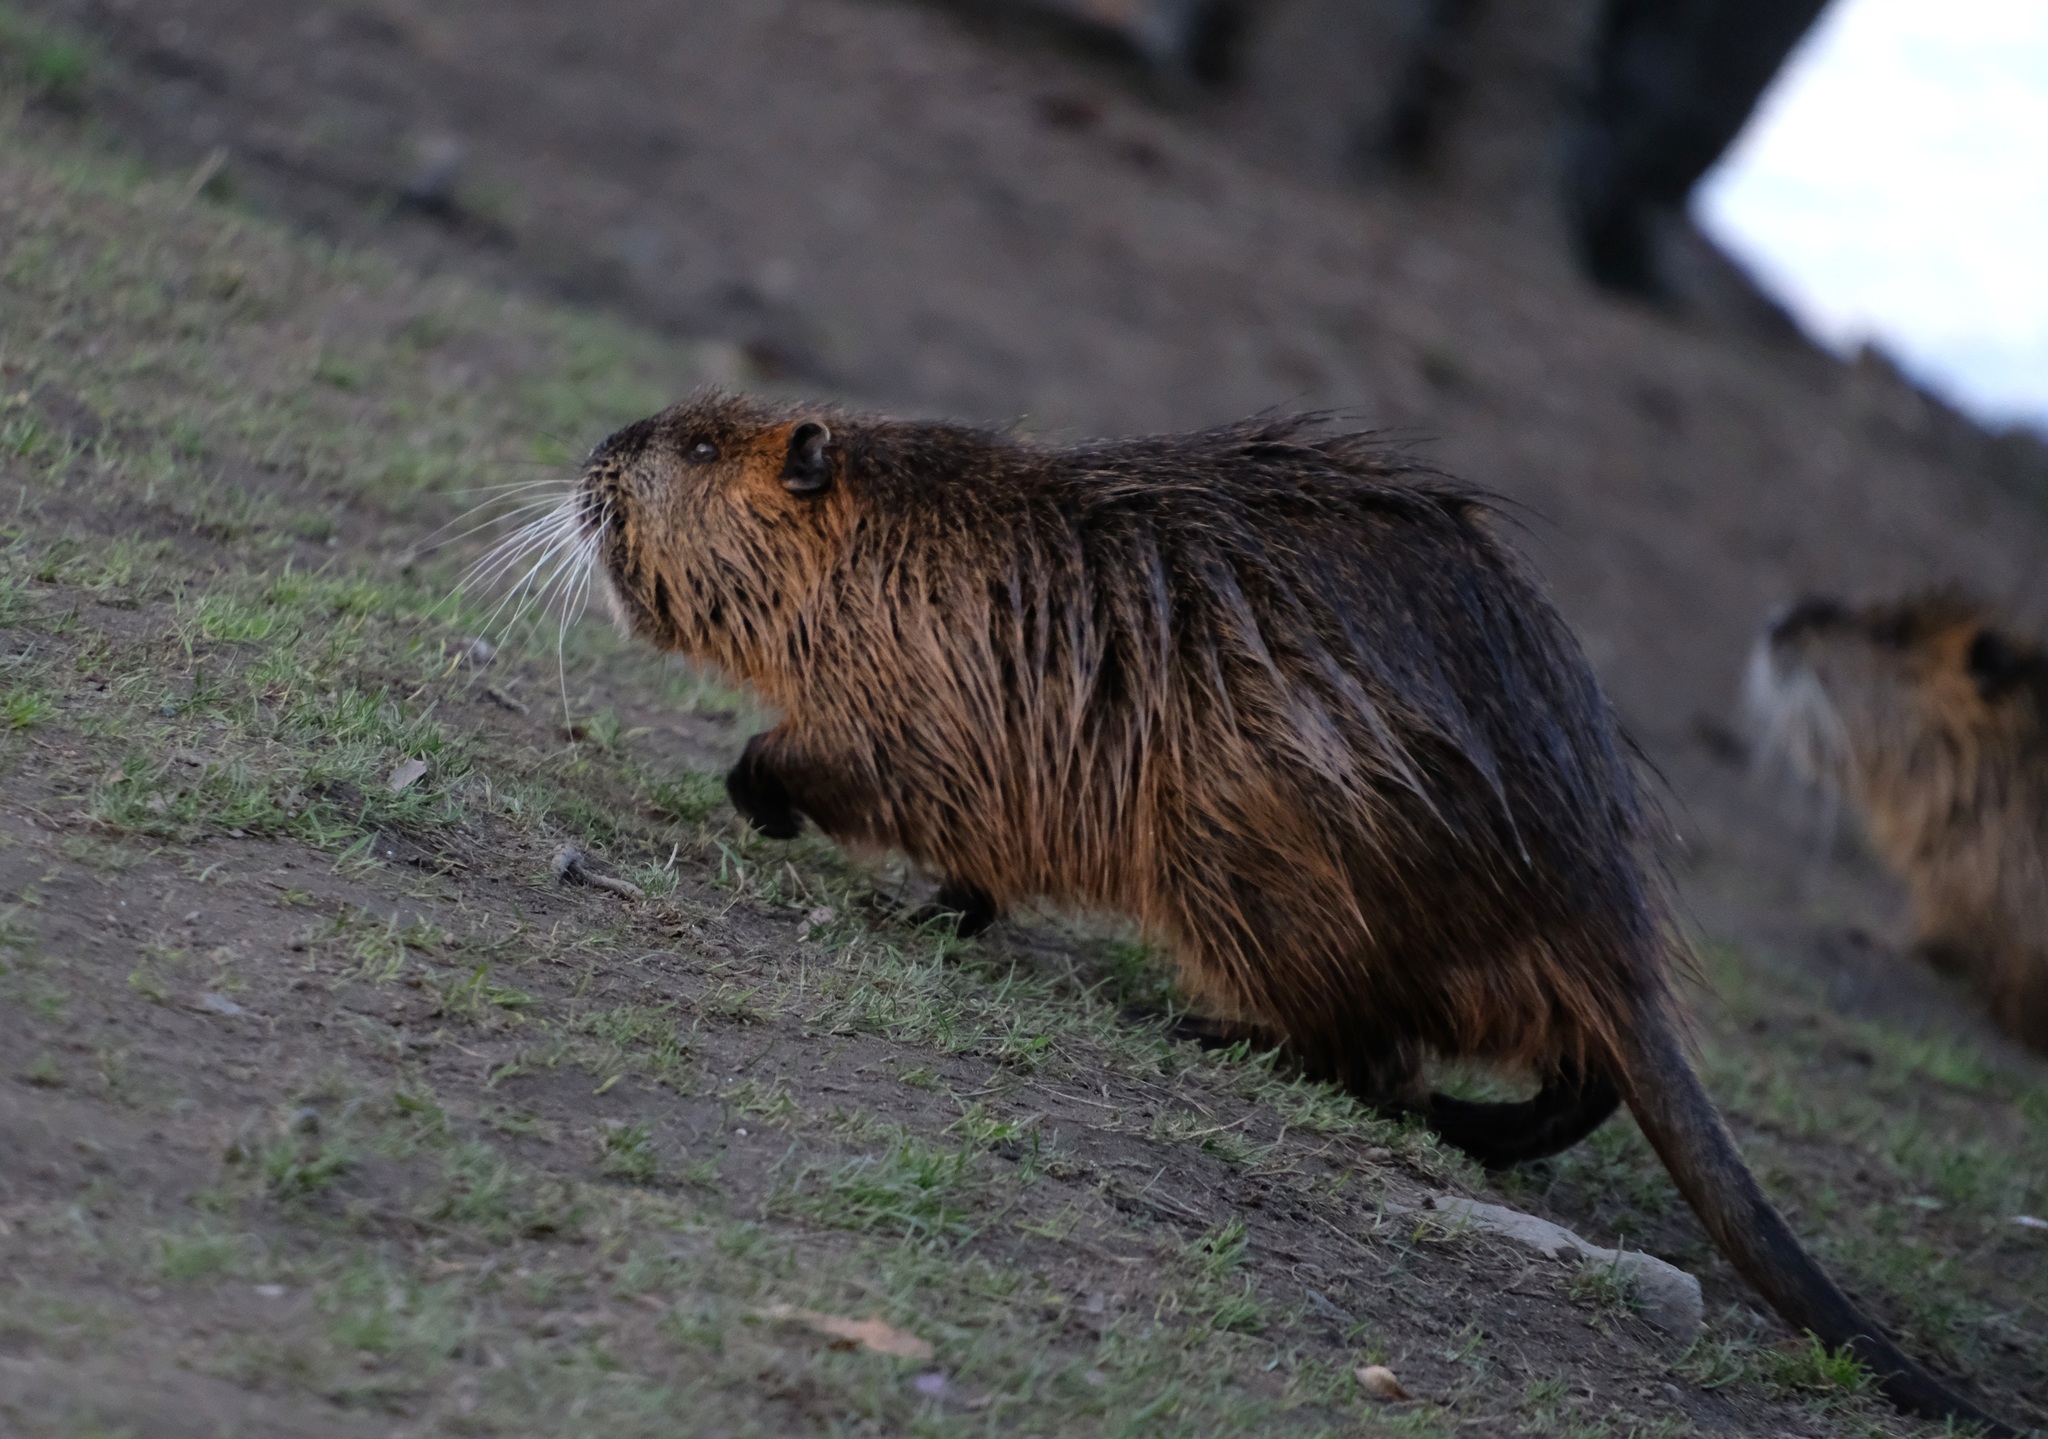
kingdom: Animalia
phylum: Chordata
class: Mammalia
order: Rodentia
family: Myocastoridae
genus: Myocastor
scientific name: Myocastor coypus
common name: Coypu
